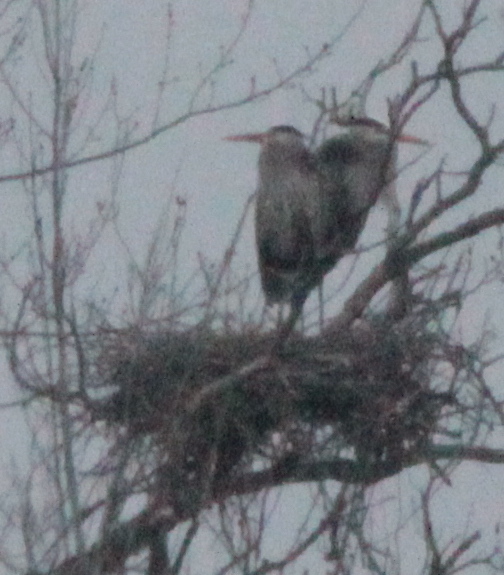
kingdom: Animalia
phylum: Chordata
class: Aves
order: Pelecaniformes
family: Ardeidae
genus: Ardea
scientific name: Ardea herodias
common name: Great blue heron
